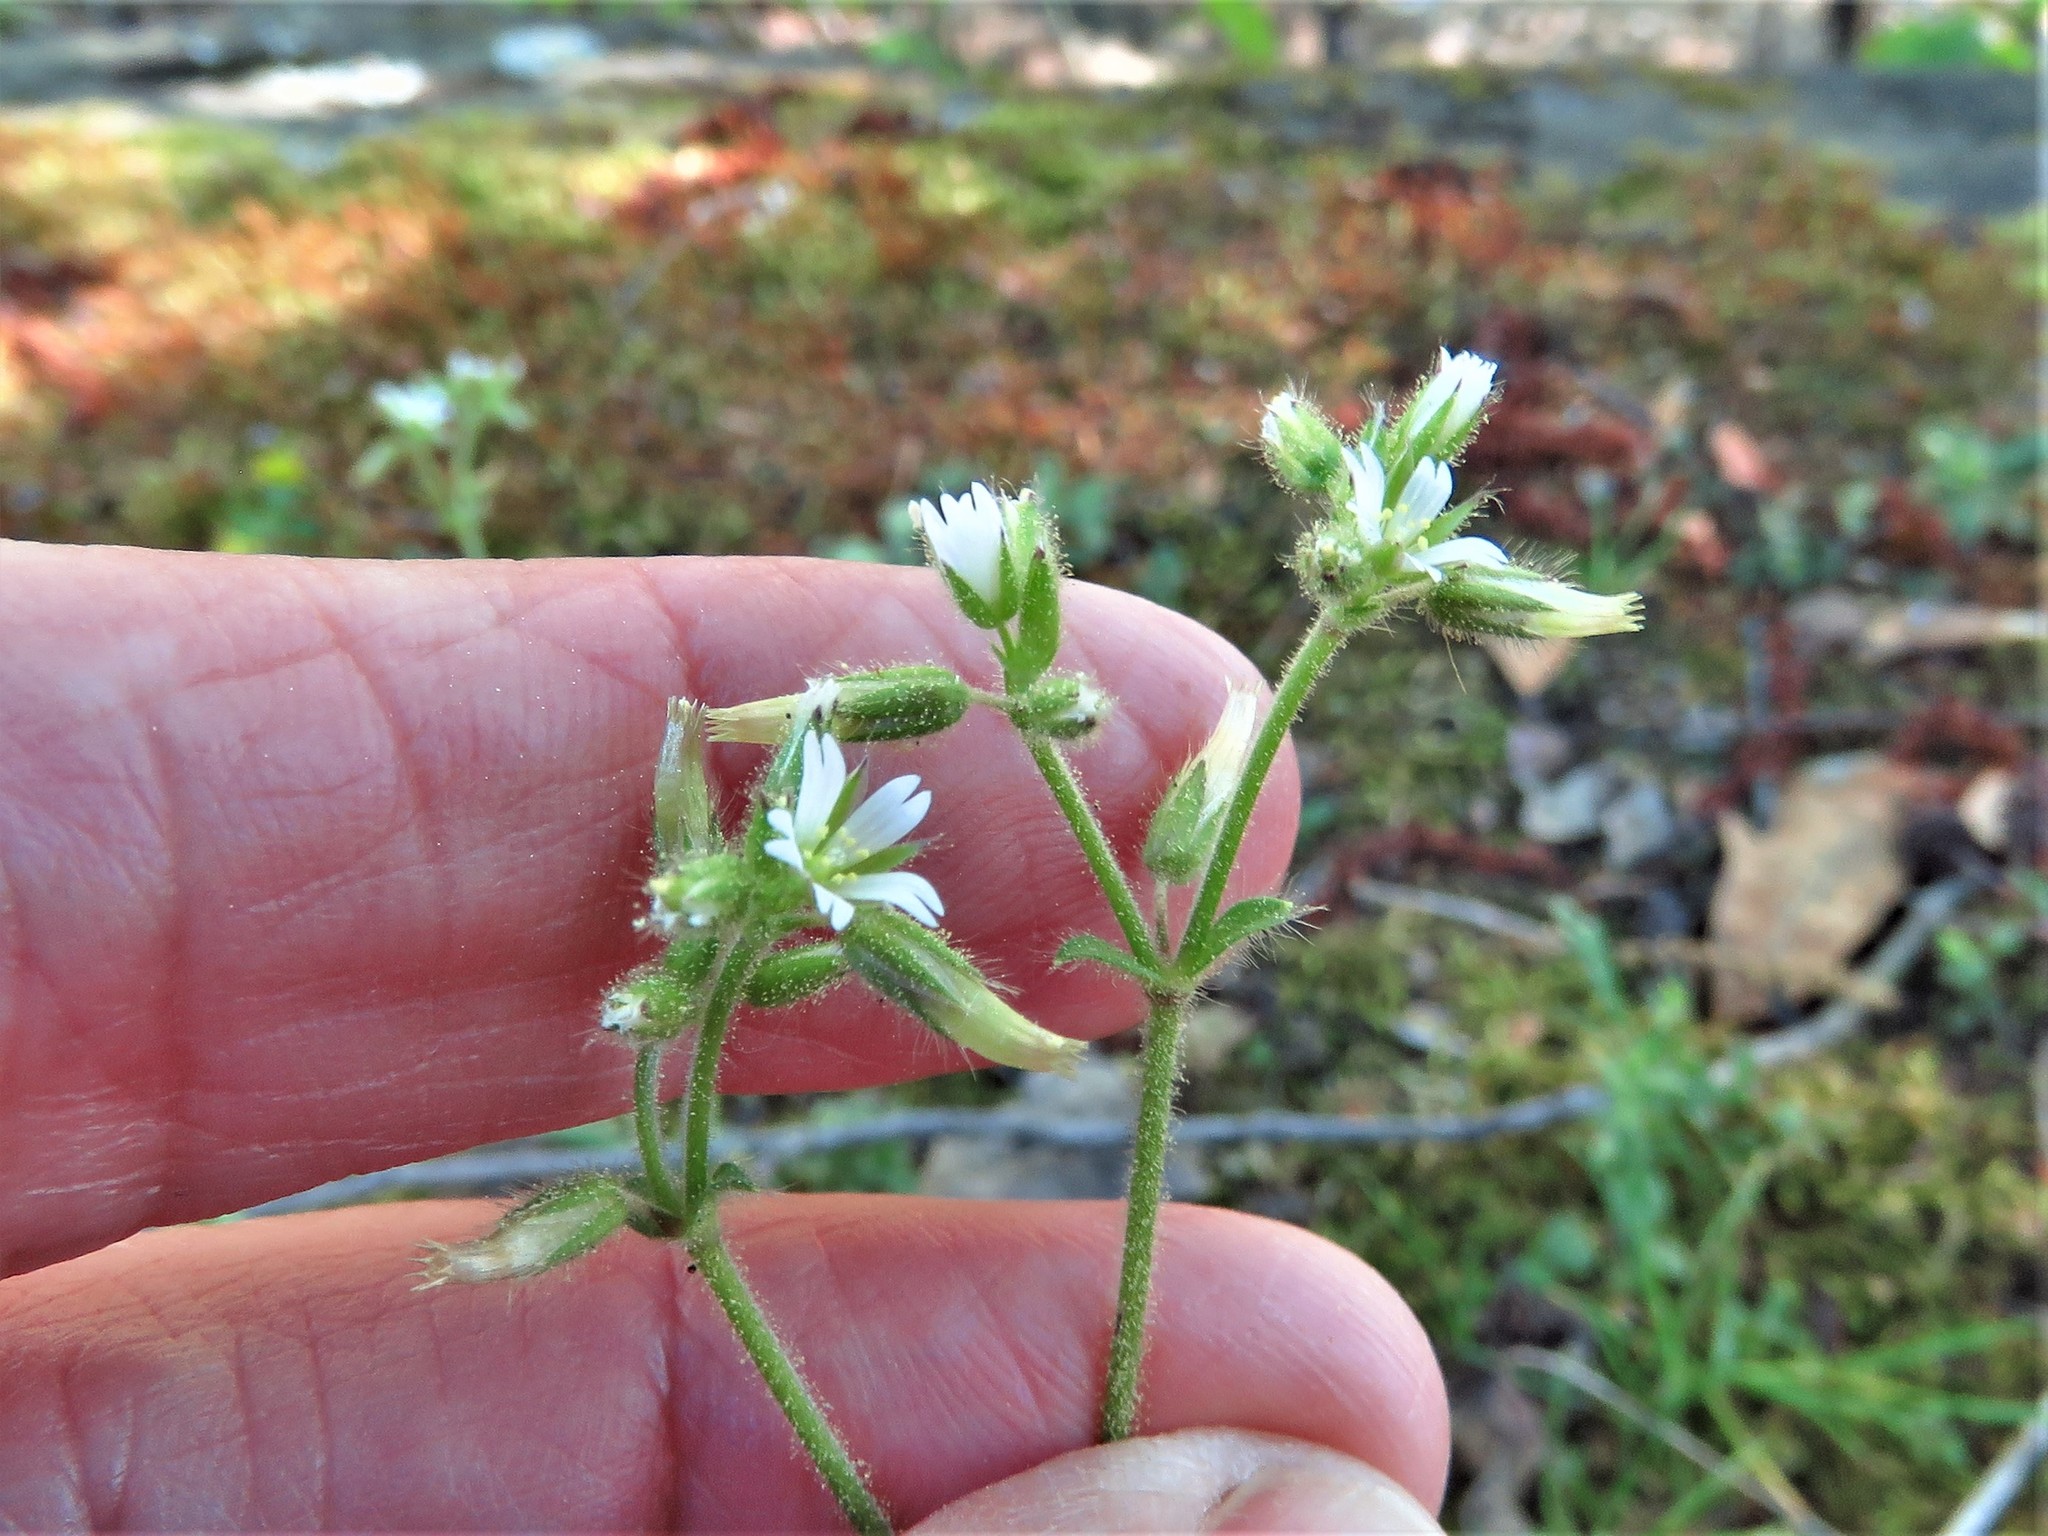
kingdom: Plantae
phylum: Tracheophyta
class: Magnoliopsida
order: Caryophyllales
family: Caryophyllaceae
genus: Cerastium
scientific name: Cerastium glomeratum
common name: Sticky chickweed
